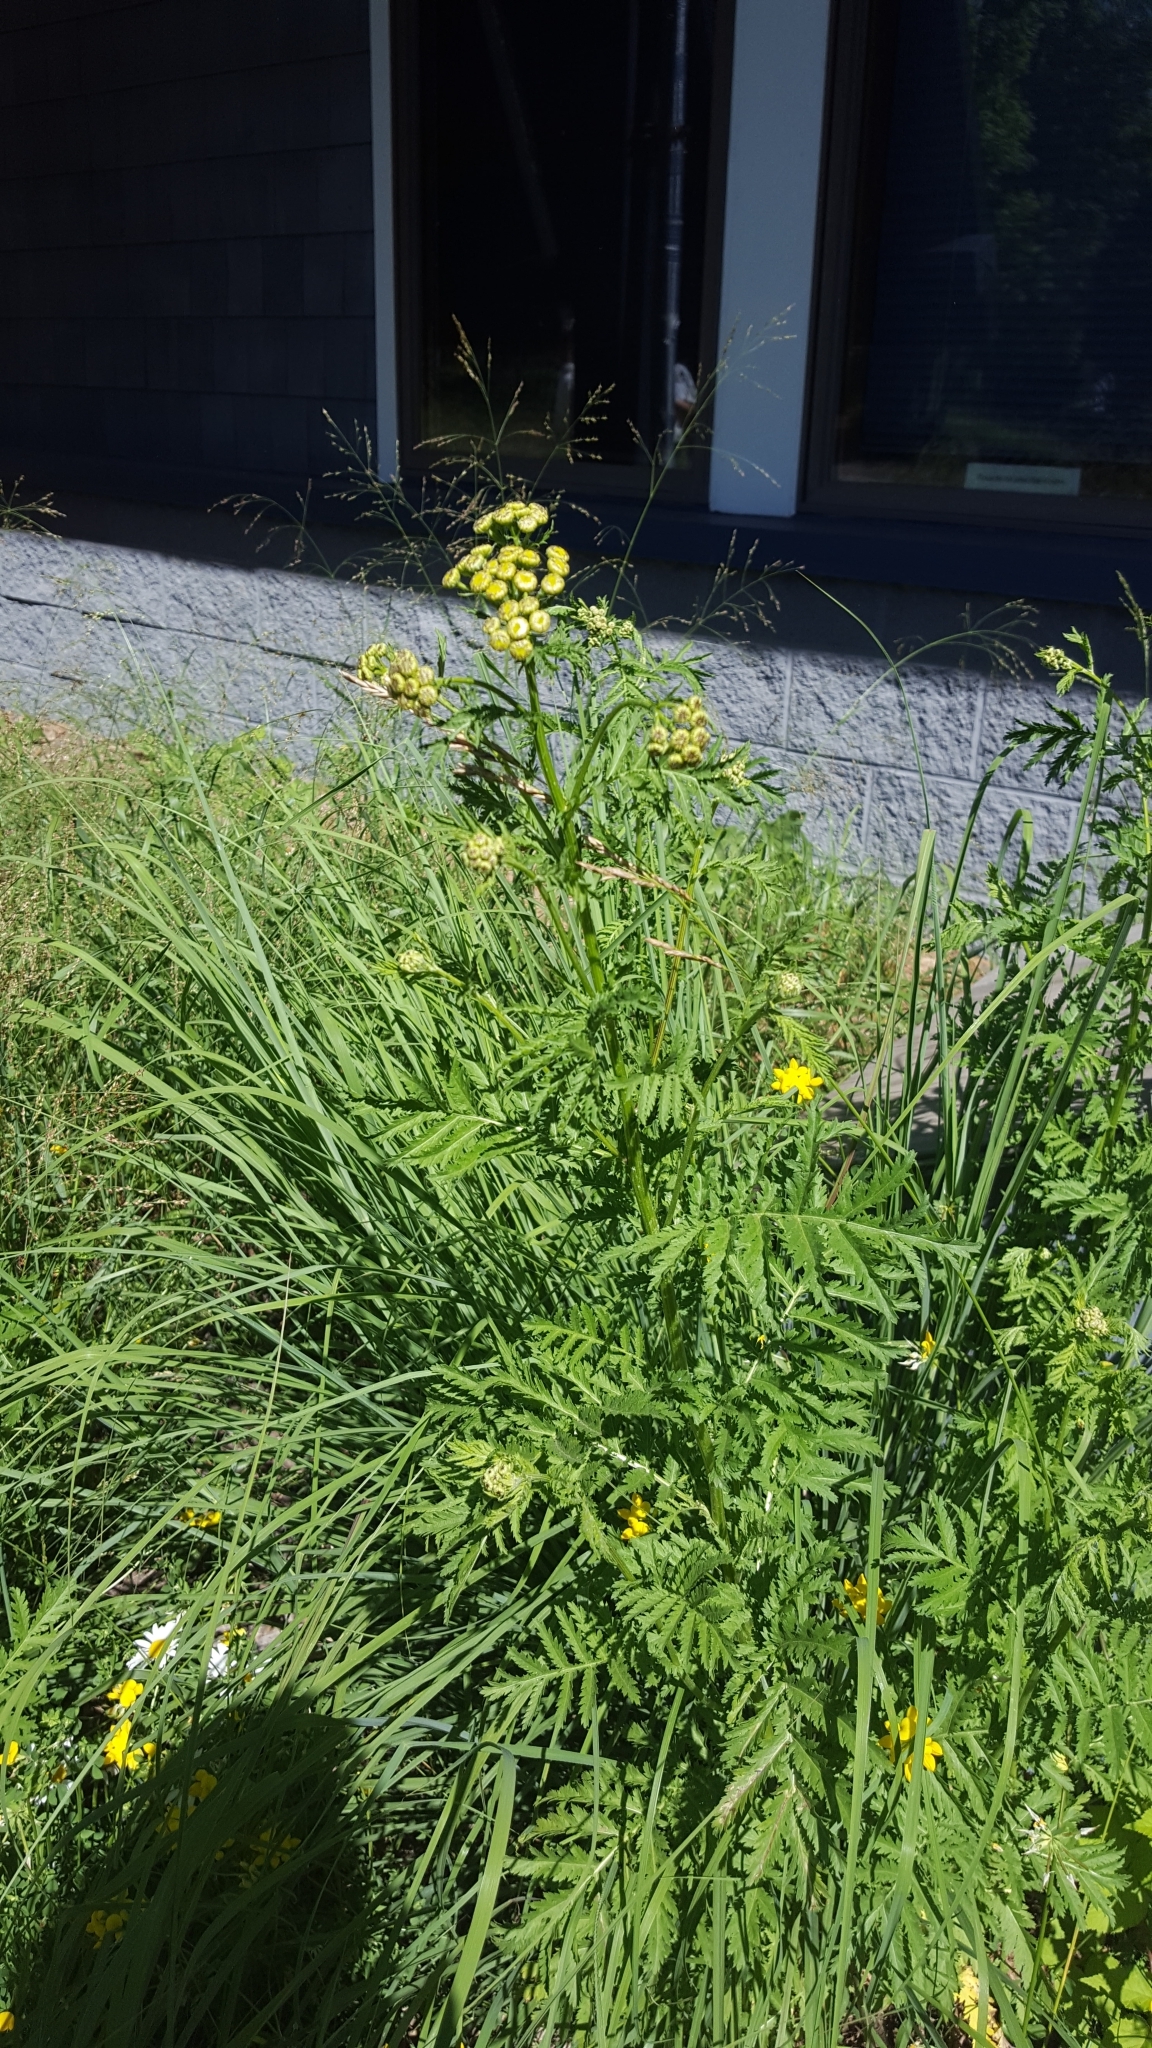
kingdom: Plantae
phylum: Tracheophyta
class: Magnoliopsida
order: Asterales
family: Asteraceae
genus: Tanacetum
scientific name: Tanacetum vulgare
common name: Common tansy
